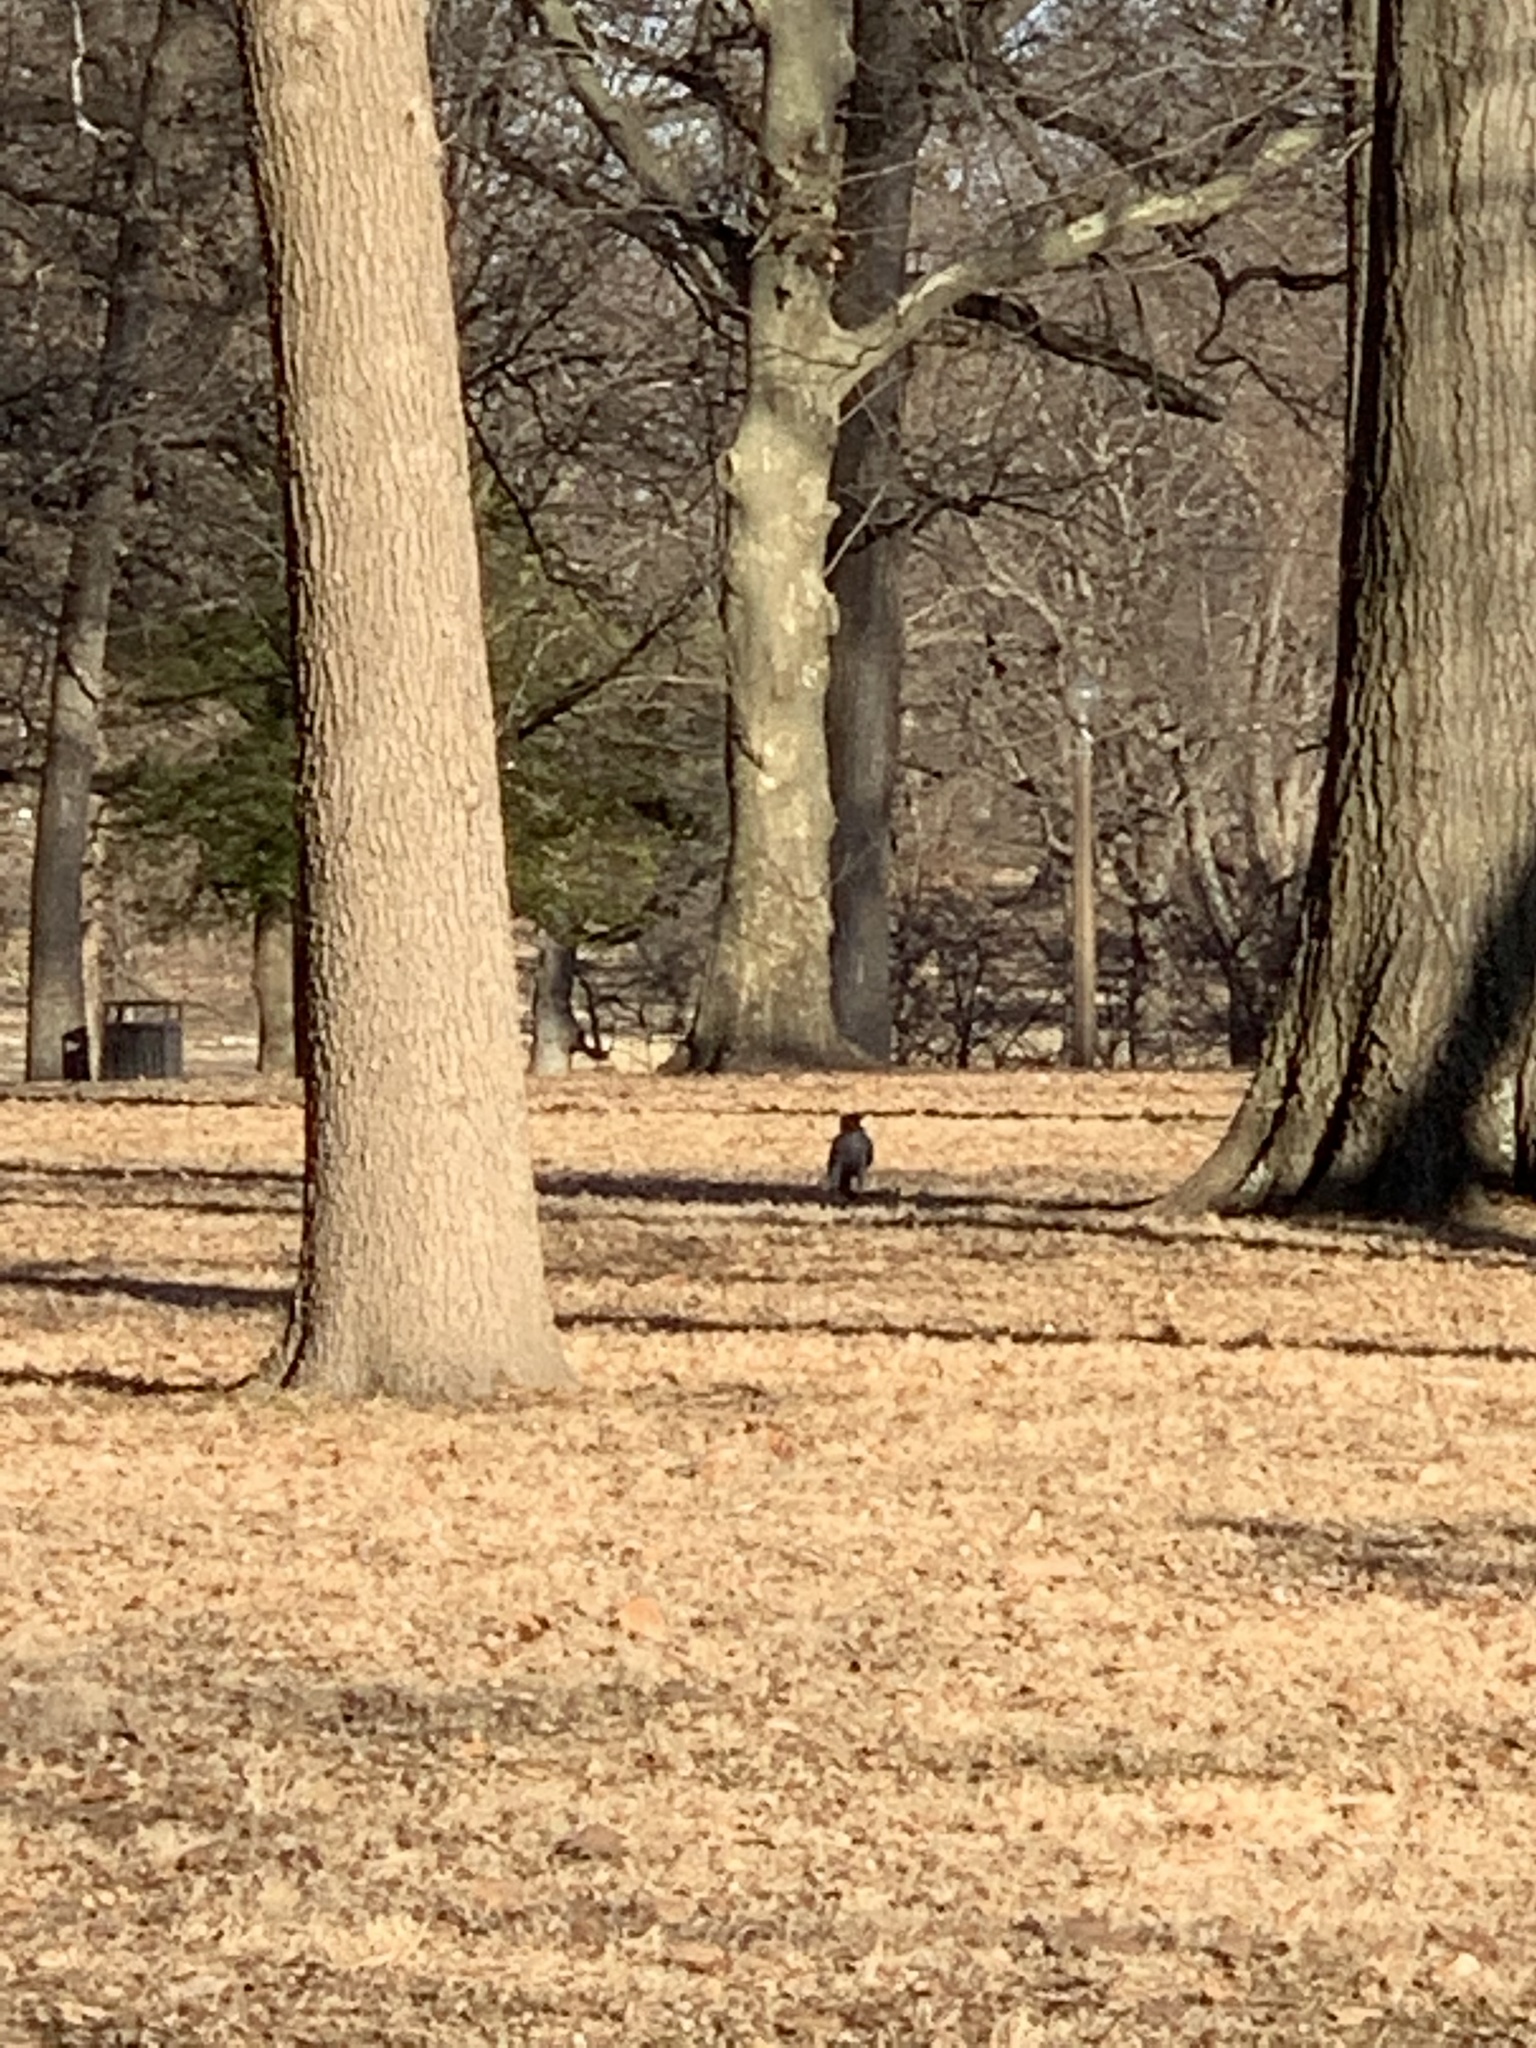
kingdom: Animalia
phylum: Chordata
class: Aves
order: Accipitriformes
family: Accipitridae
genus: Buteo
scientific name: Buteo jamaicensis
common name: Red-tailed hawk
